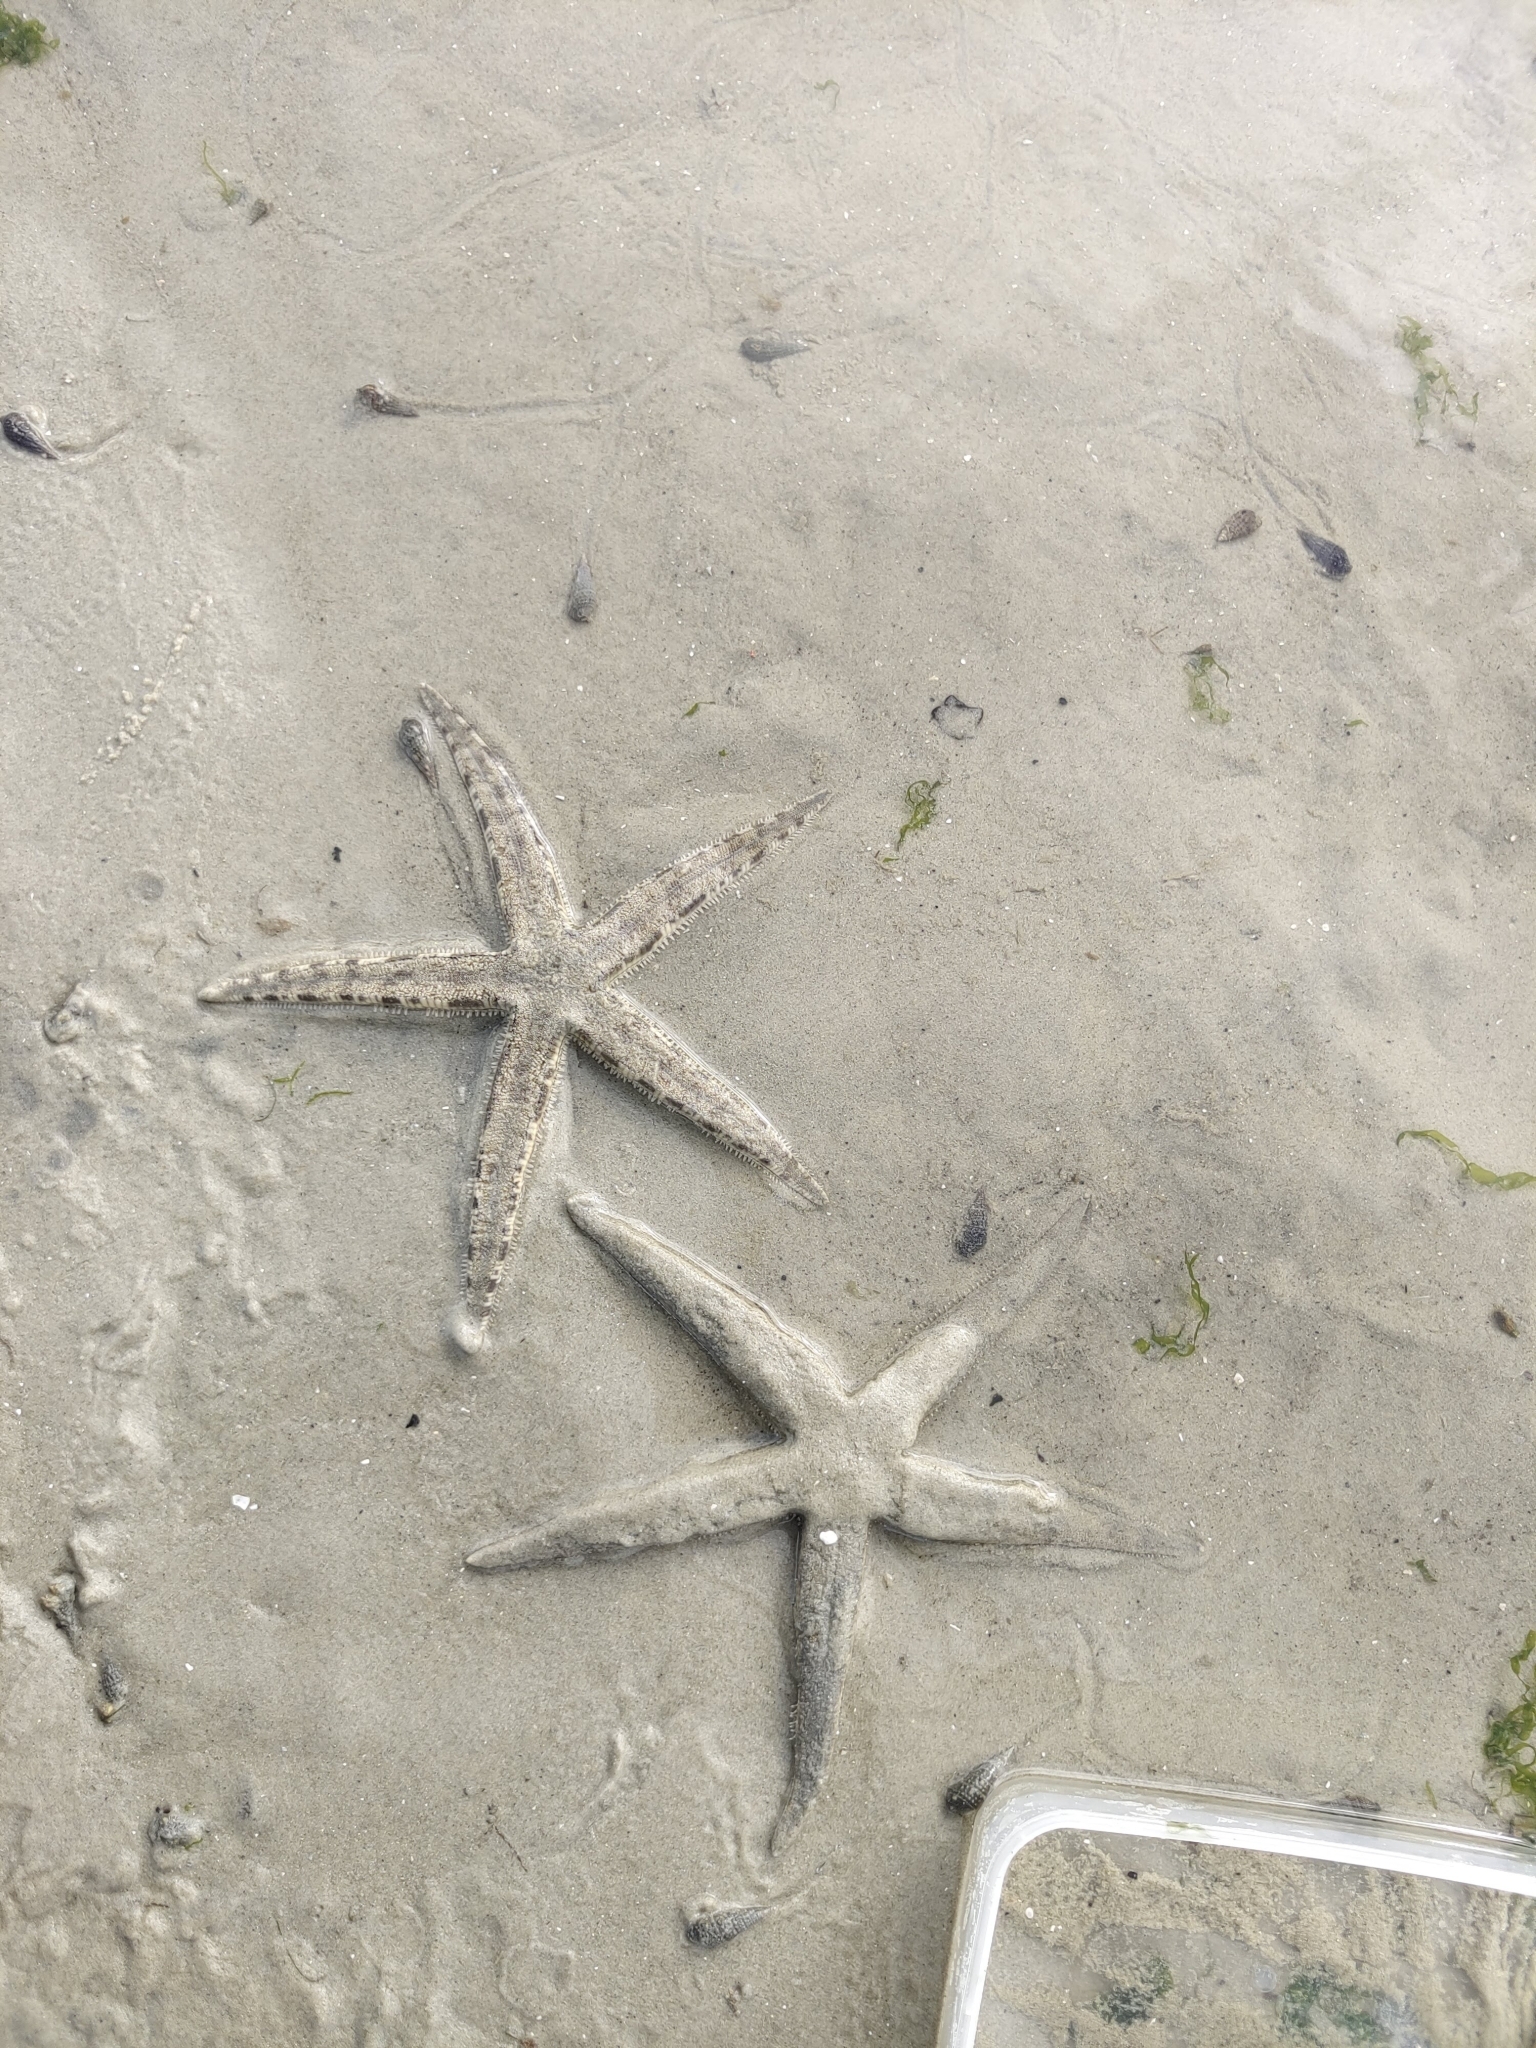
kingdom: Animalia
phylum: Echinodermata
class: Asteroidea
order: Valvatida
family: Archasteridae
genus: Archaster
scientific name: Archaster typicus
